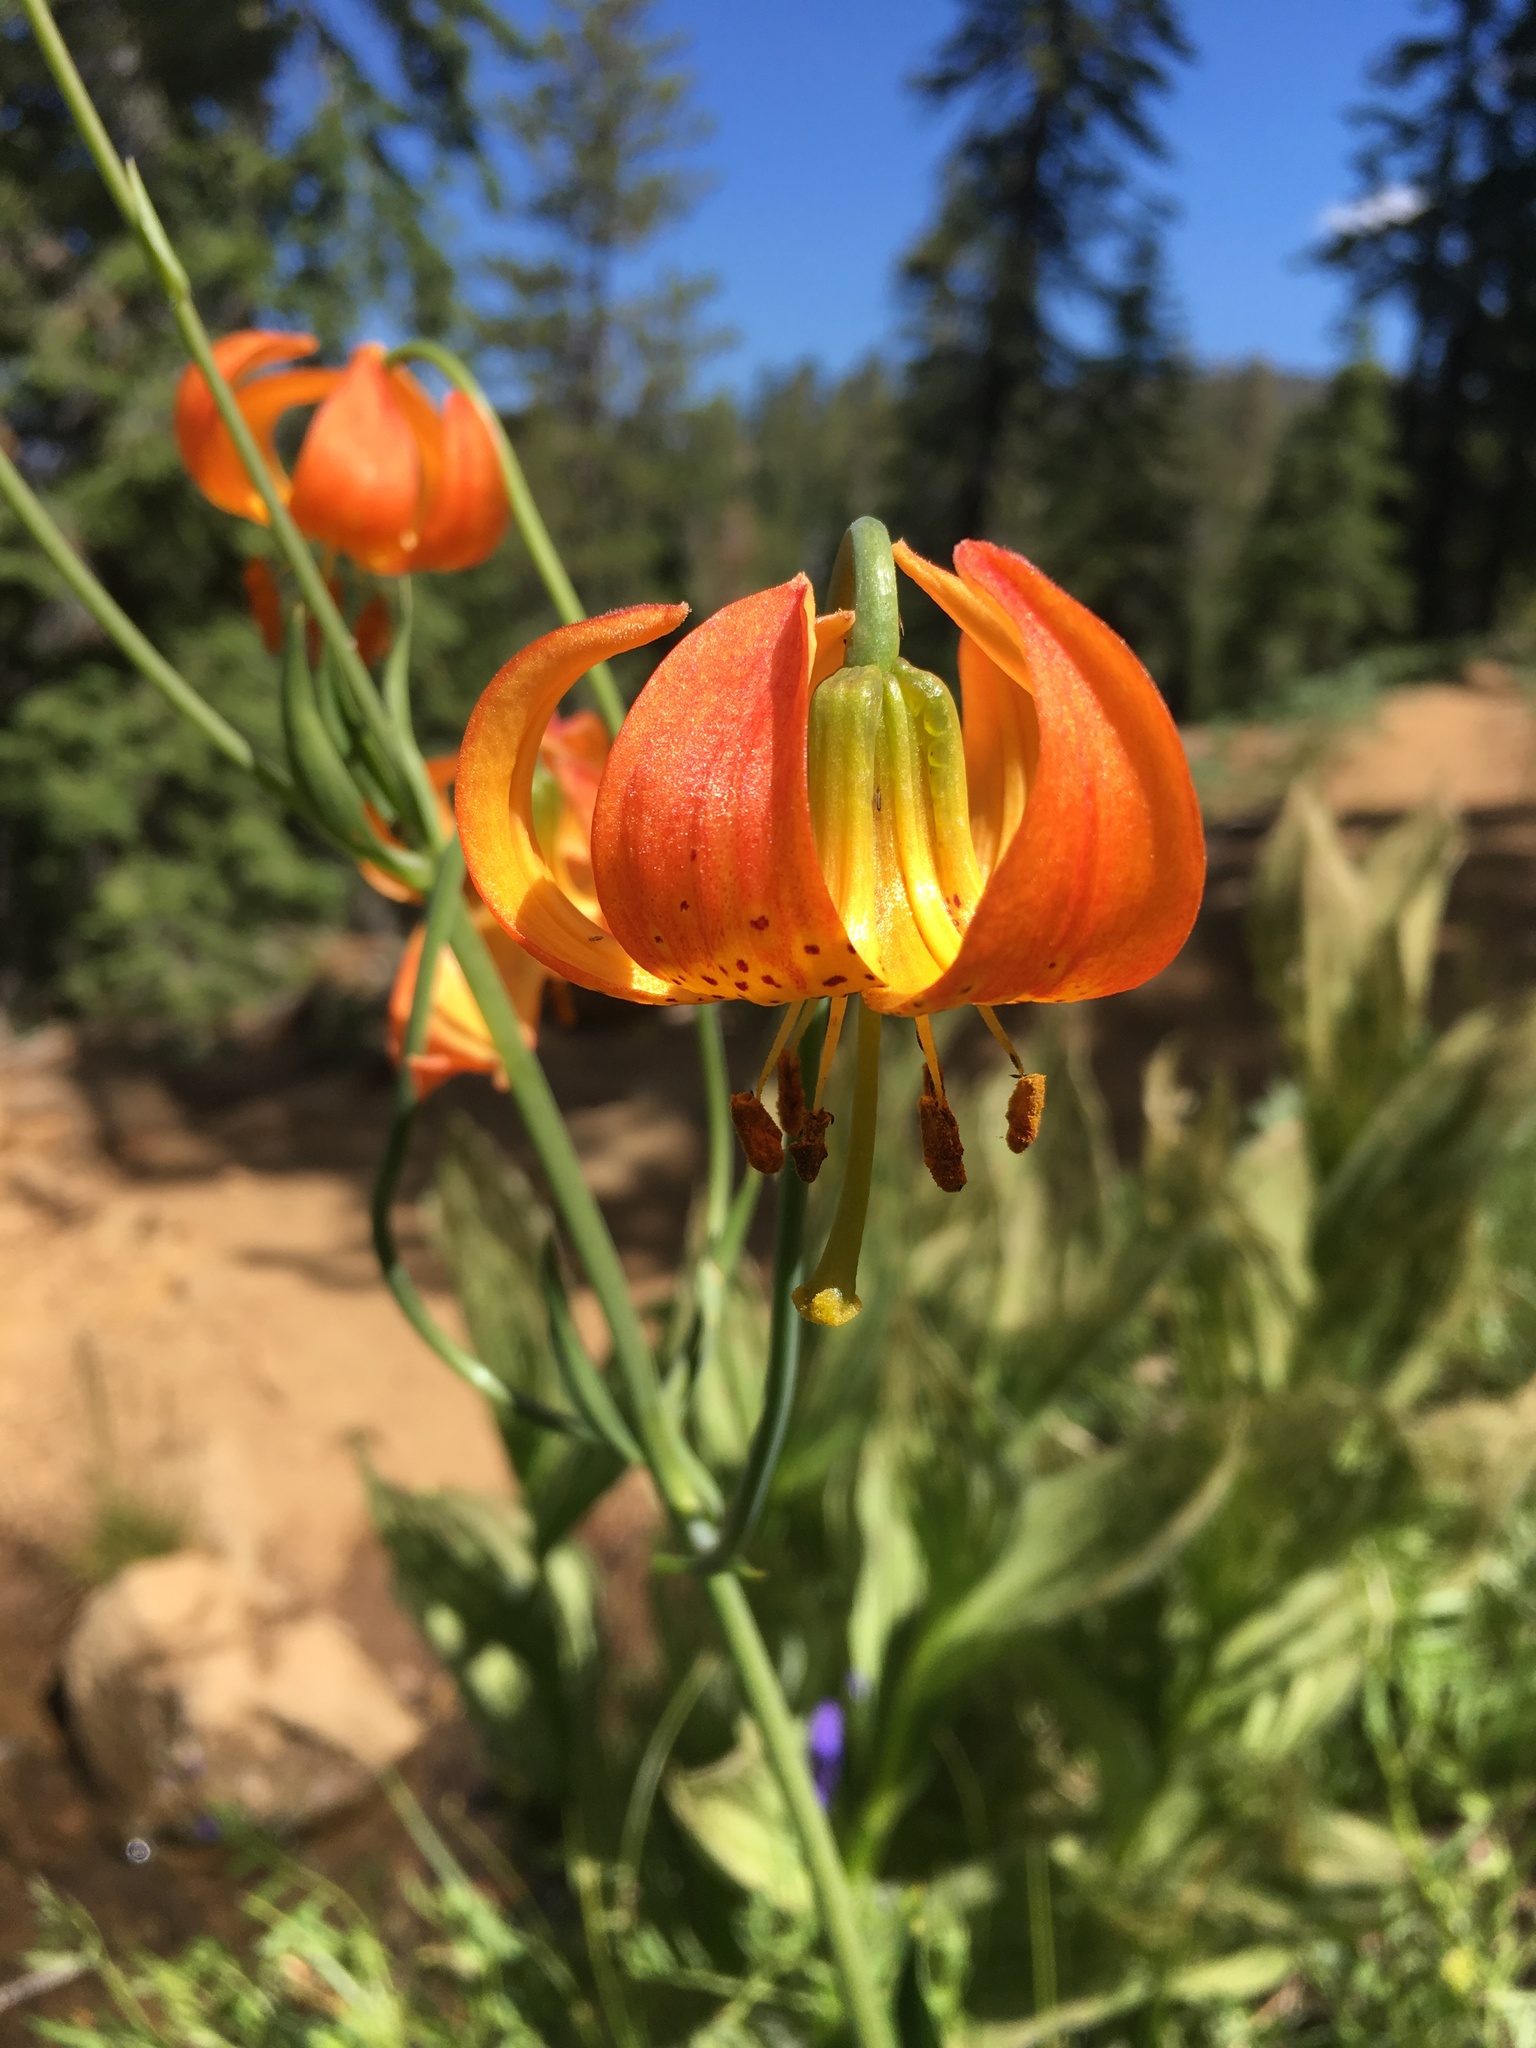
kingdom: Plantae
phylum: Tracheophyta
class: Liliopsida
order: Liliales
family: Liliaceae
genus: Lilium
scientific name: Lilium pardalinum
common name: Panther lily
